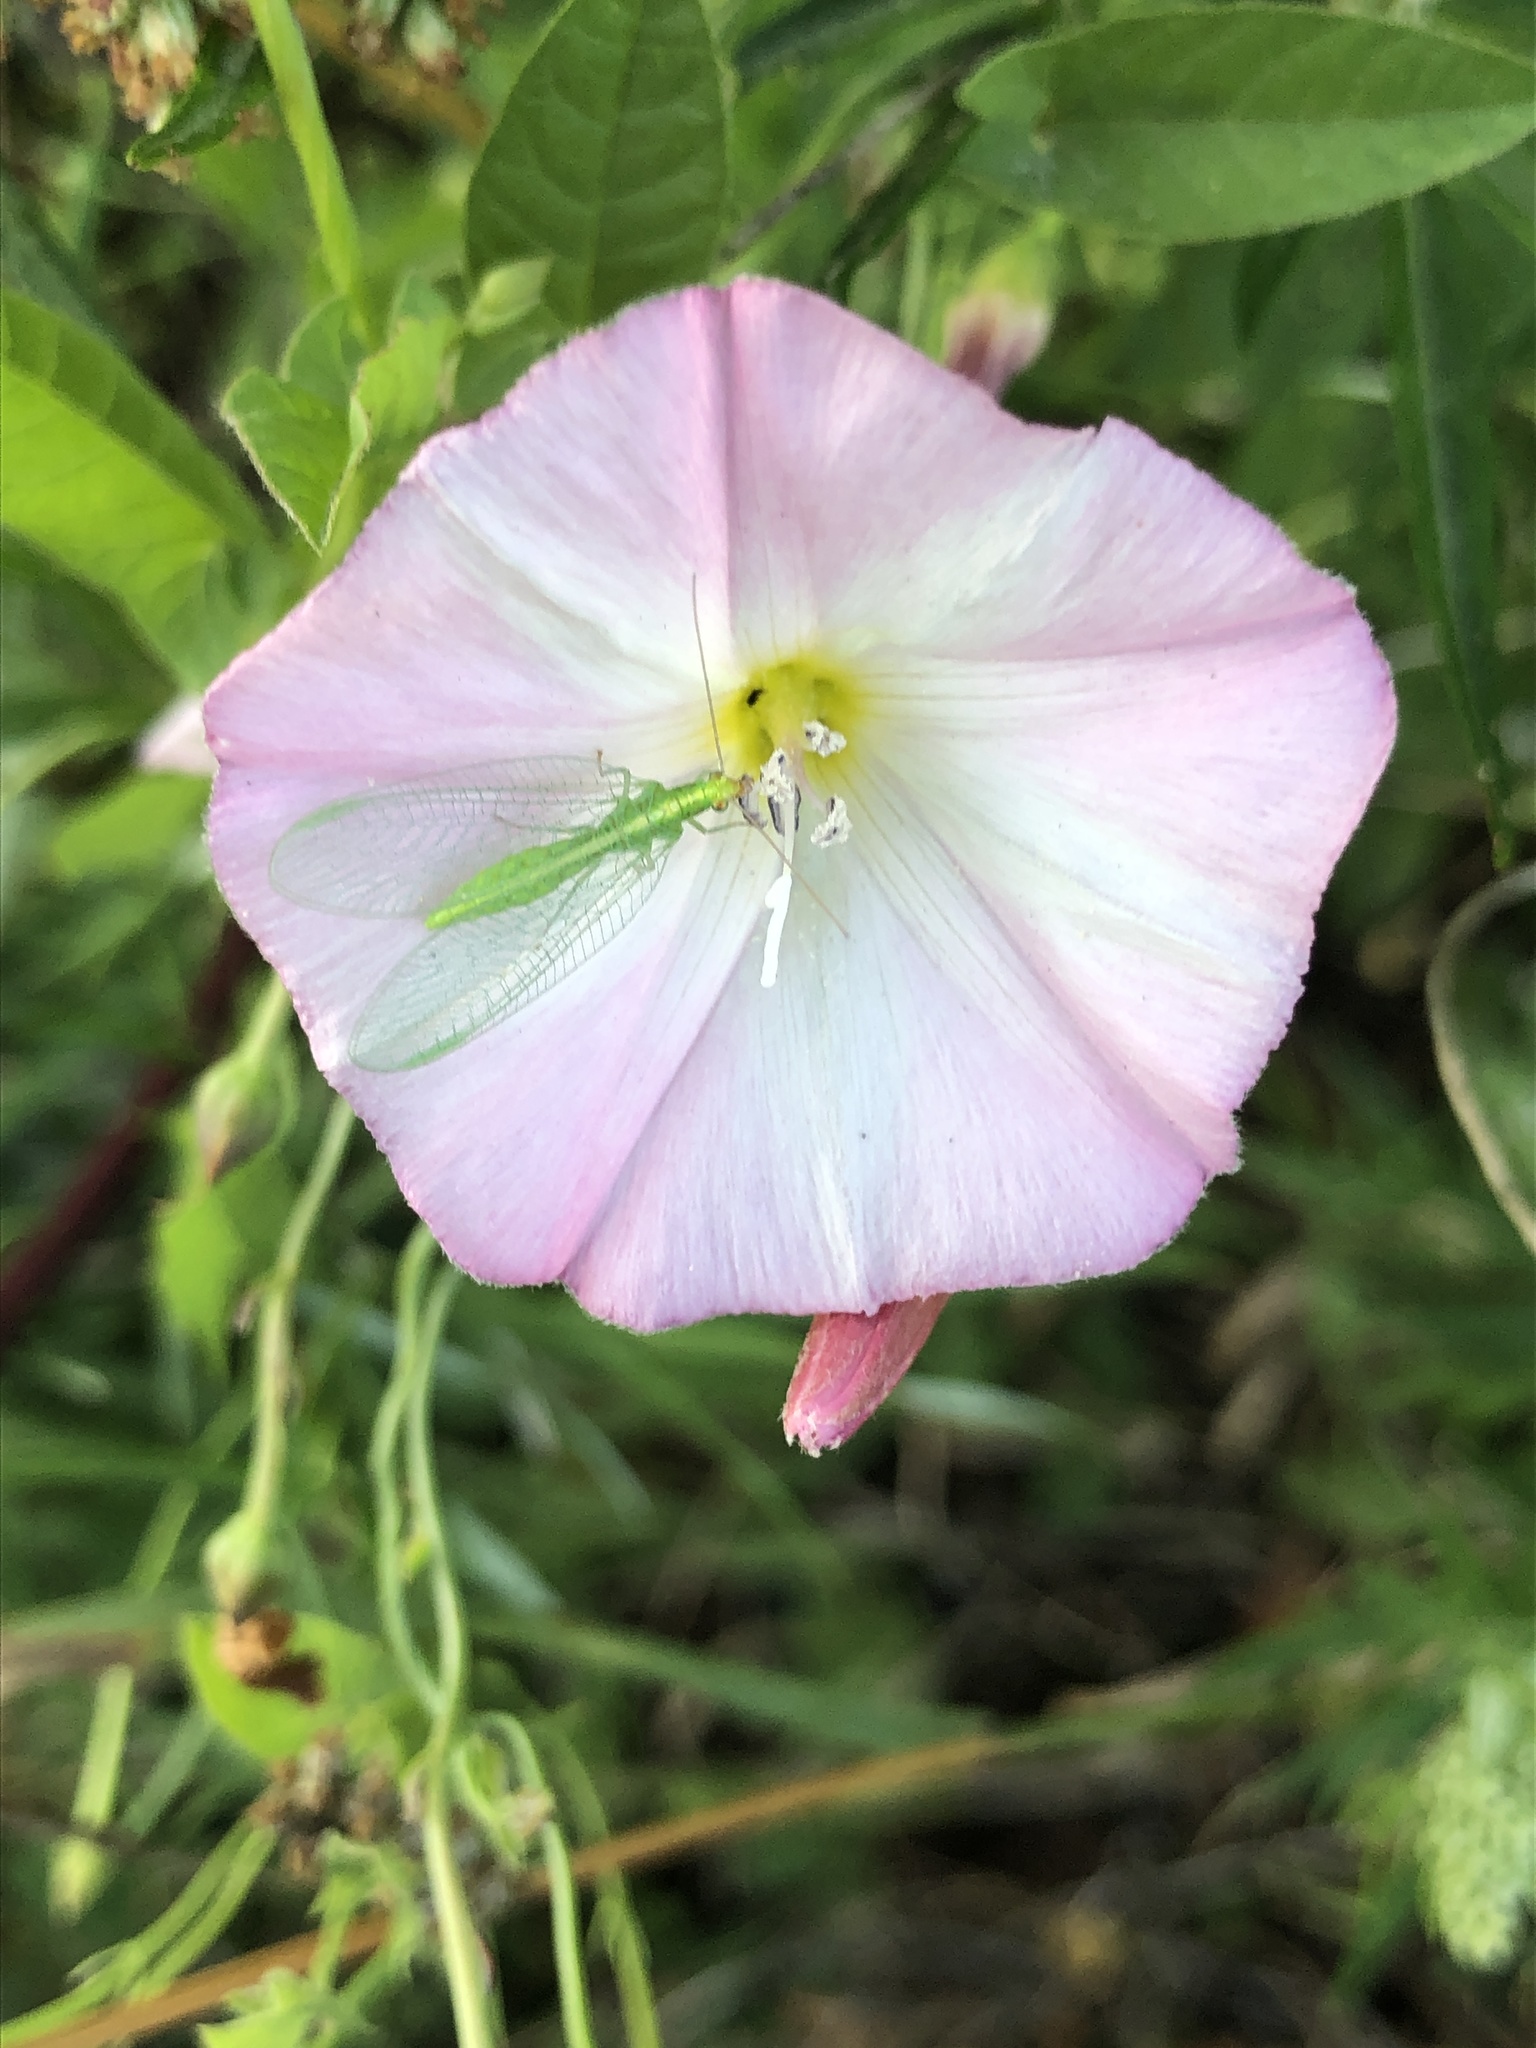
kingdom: Animalia
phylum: Arthropoda
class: Insecta
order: Neuroptera
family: Chrysopidae
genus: Chrysoperla
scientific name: Chrysoperla
